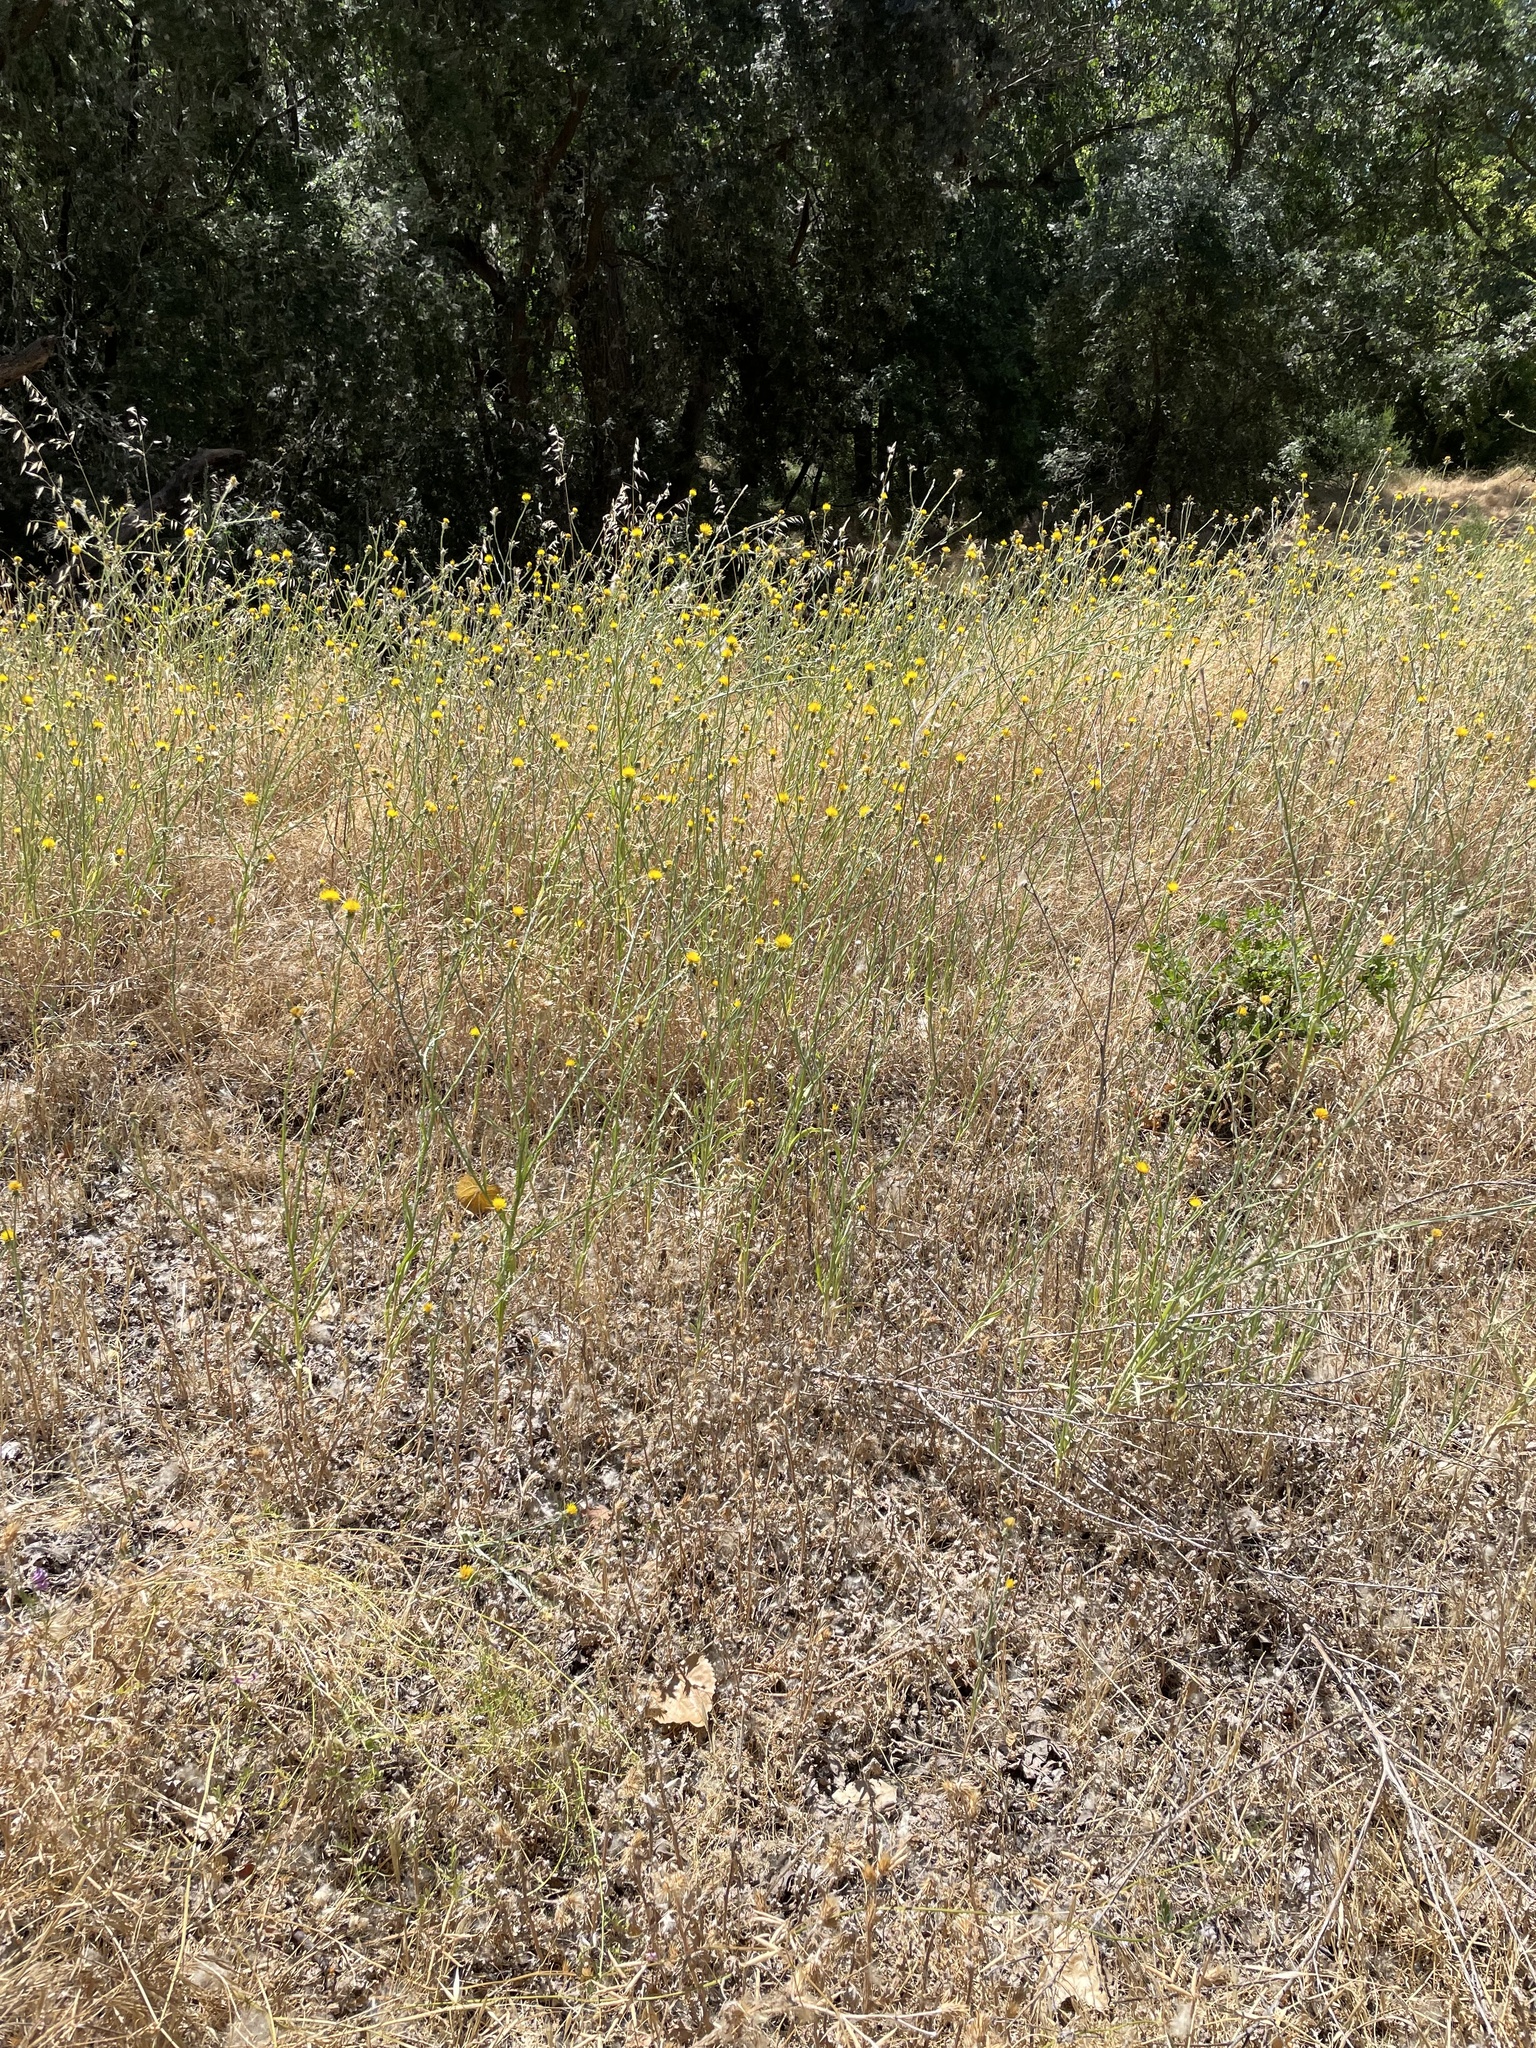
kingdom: Plantae
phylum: Tracheophyta
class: Magnoliopsida
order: Asterales
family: Asteraceae
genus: Centaurea
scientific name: Centaurea solstitialis
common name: Yellow star-thistle
